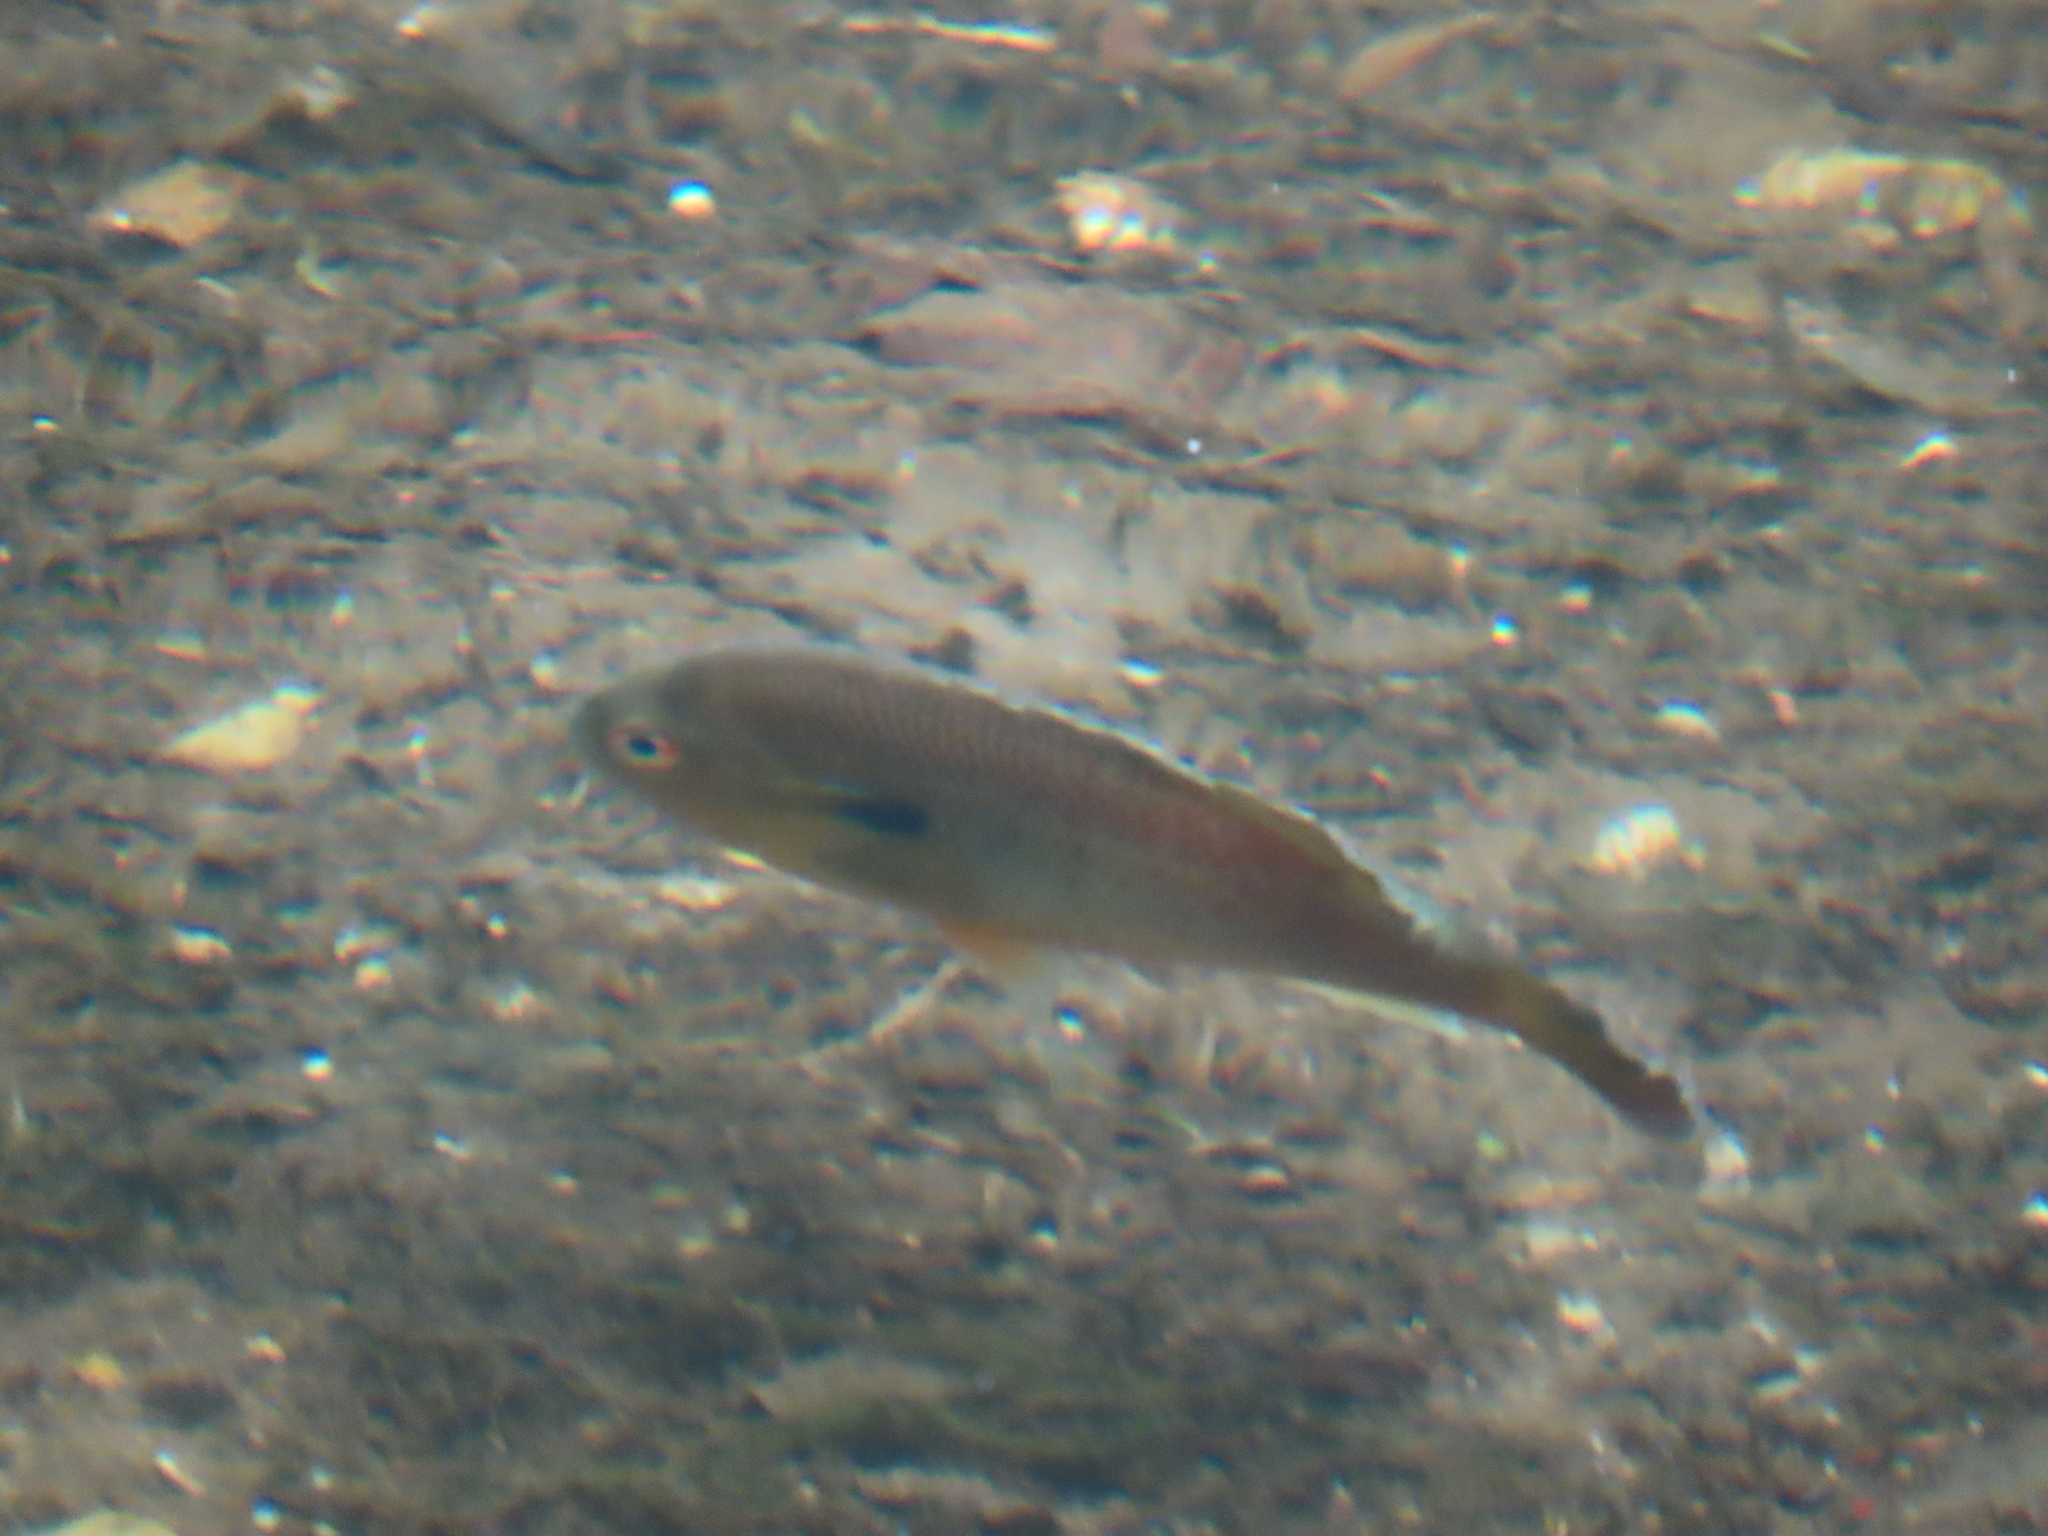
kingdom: Animalia
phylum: Chordata
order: Perciformes
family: Centrarchidae
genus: Lepomis
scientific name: Lepomis auritus
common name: Redbreast sunfish
